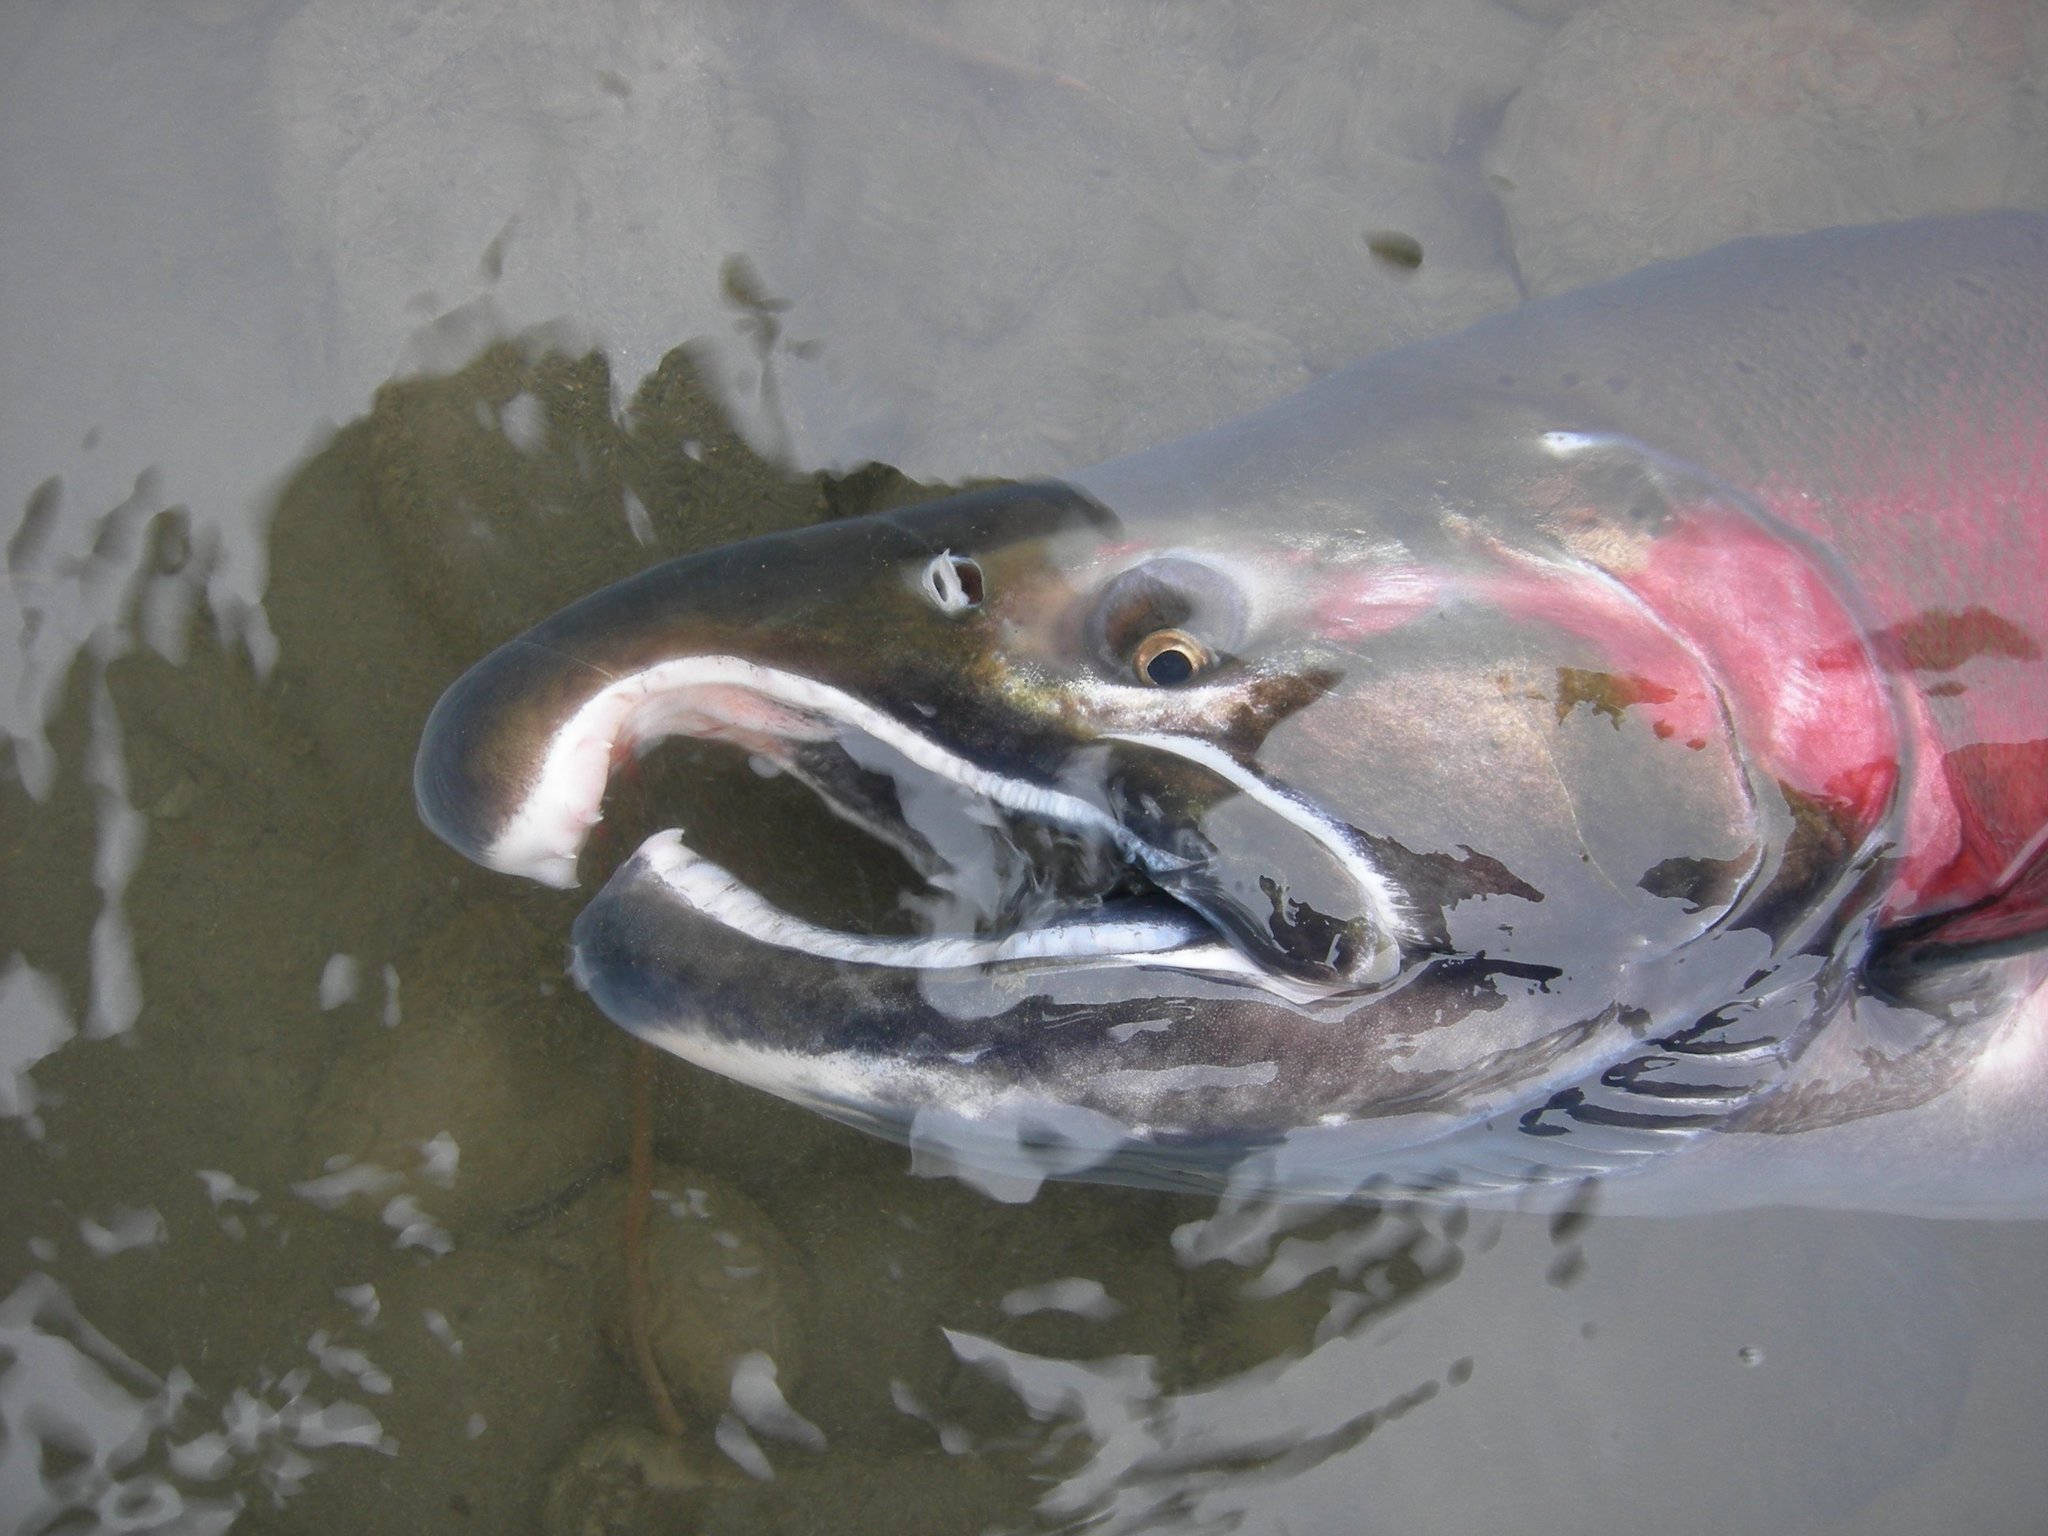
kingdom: Animalia
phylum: Chordata
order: Salmoniformes
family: Salmonidae
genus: Oncorhynchus
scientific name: Oncorhynchus kisutch
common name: Coho salmon
